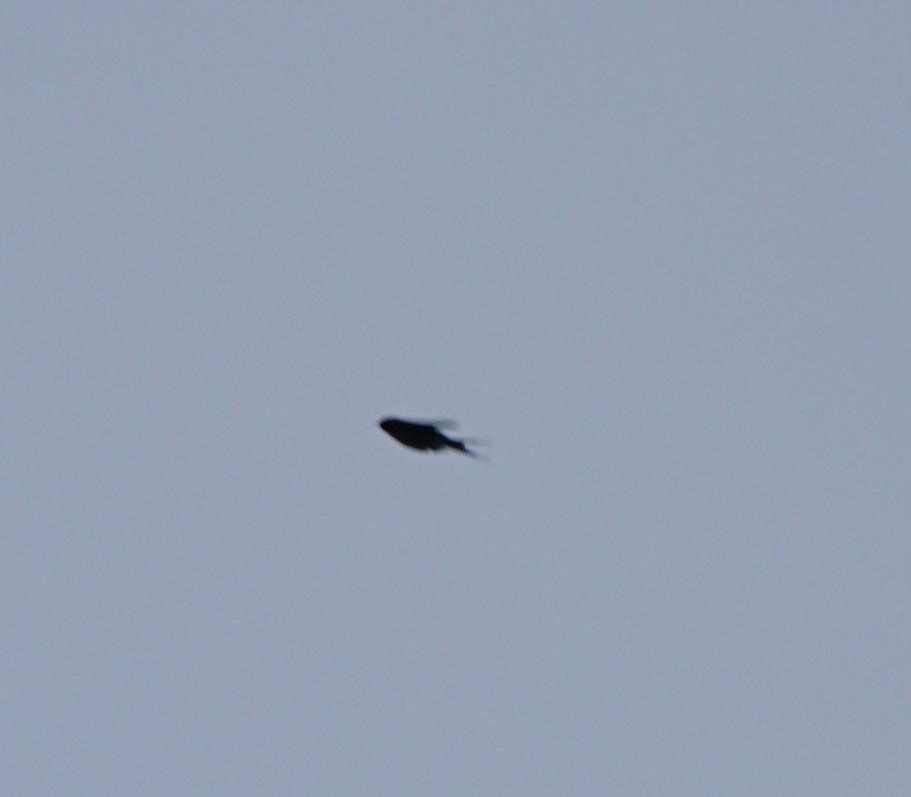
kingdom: Animalia
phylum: Chordata
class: Aves
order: Passeriformes
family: Hirundinidae
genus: Hirundo
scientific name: Hirundo neoxena
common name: Welcome swallow
